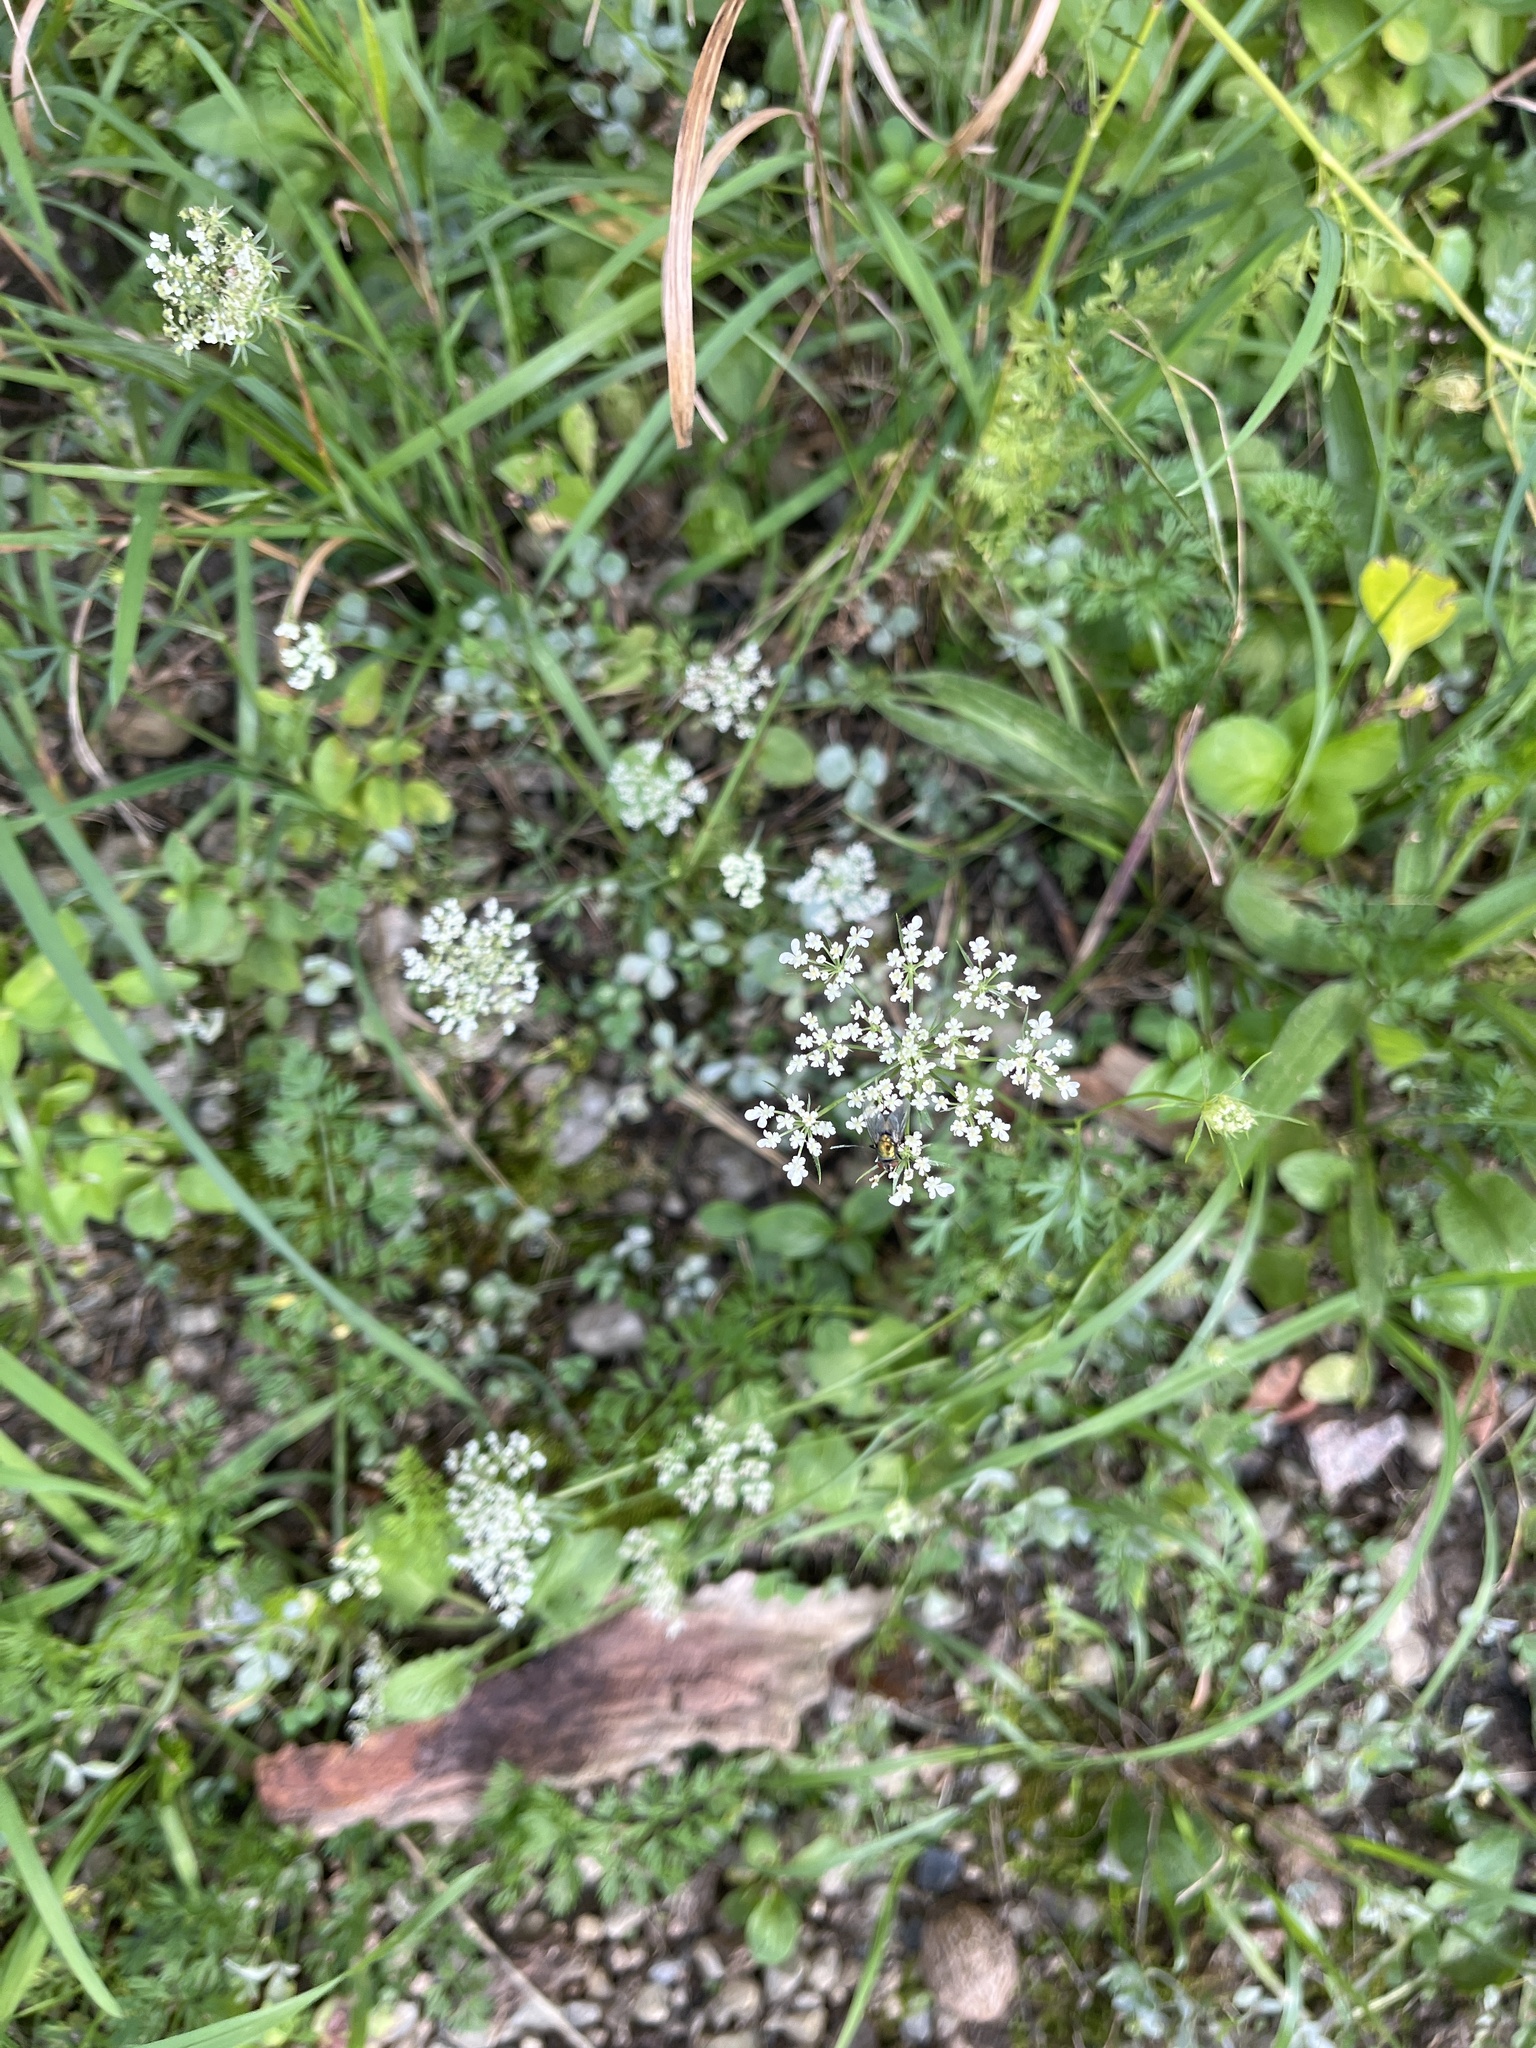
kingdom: Plantae
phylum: Tracheophyta
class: Magnoliopsida
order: Apiales
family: Apiaceae
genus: Daucus
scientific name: Daucus carota
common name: Wild carrot
